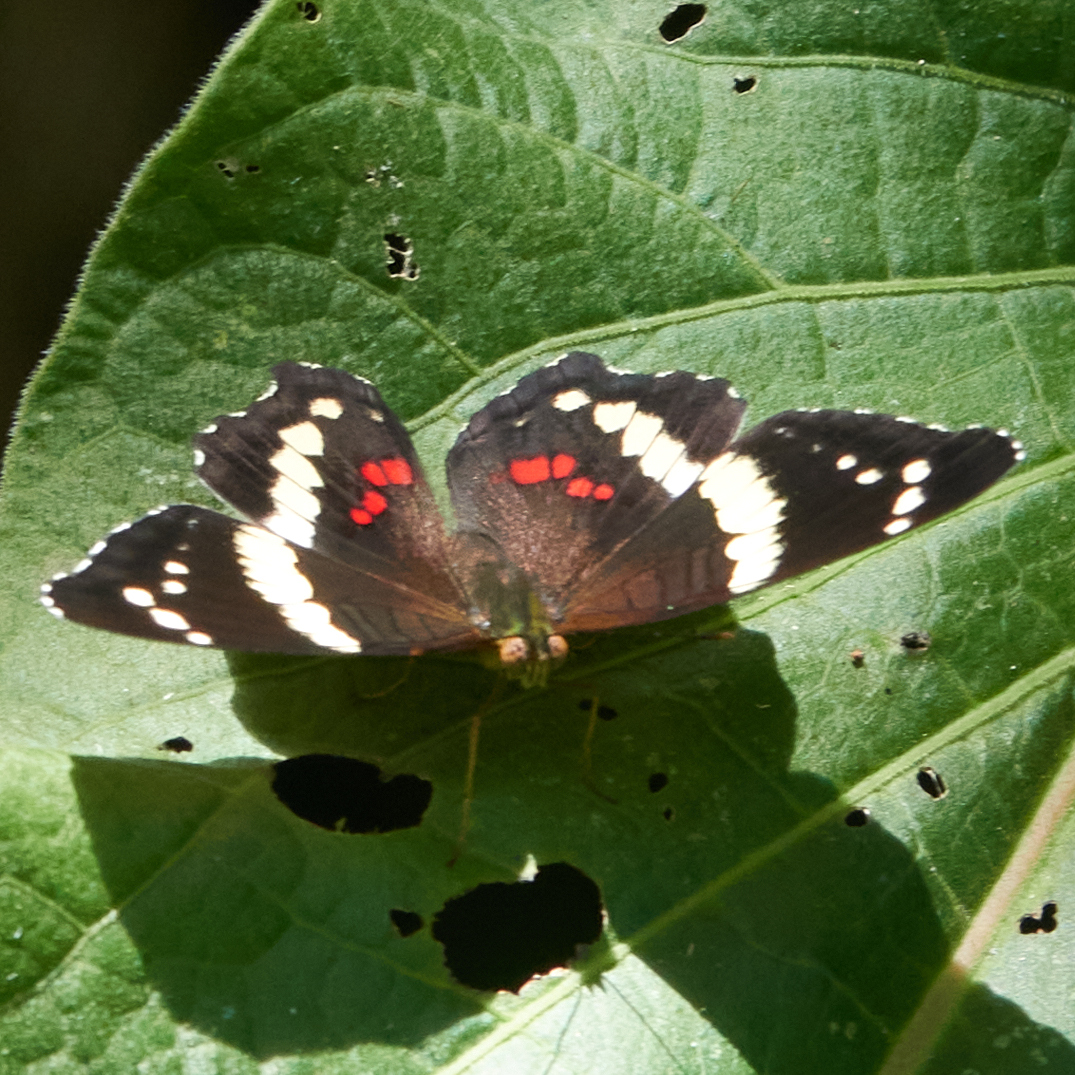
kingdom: Animalia
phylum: Arthropoda
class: Insecta
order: Lepidoptera
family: Nymphalidae
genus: Anartia
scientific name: Anartia fatima
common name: Banded peacock
